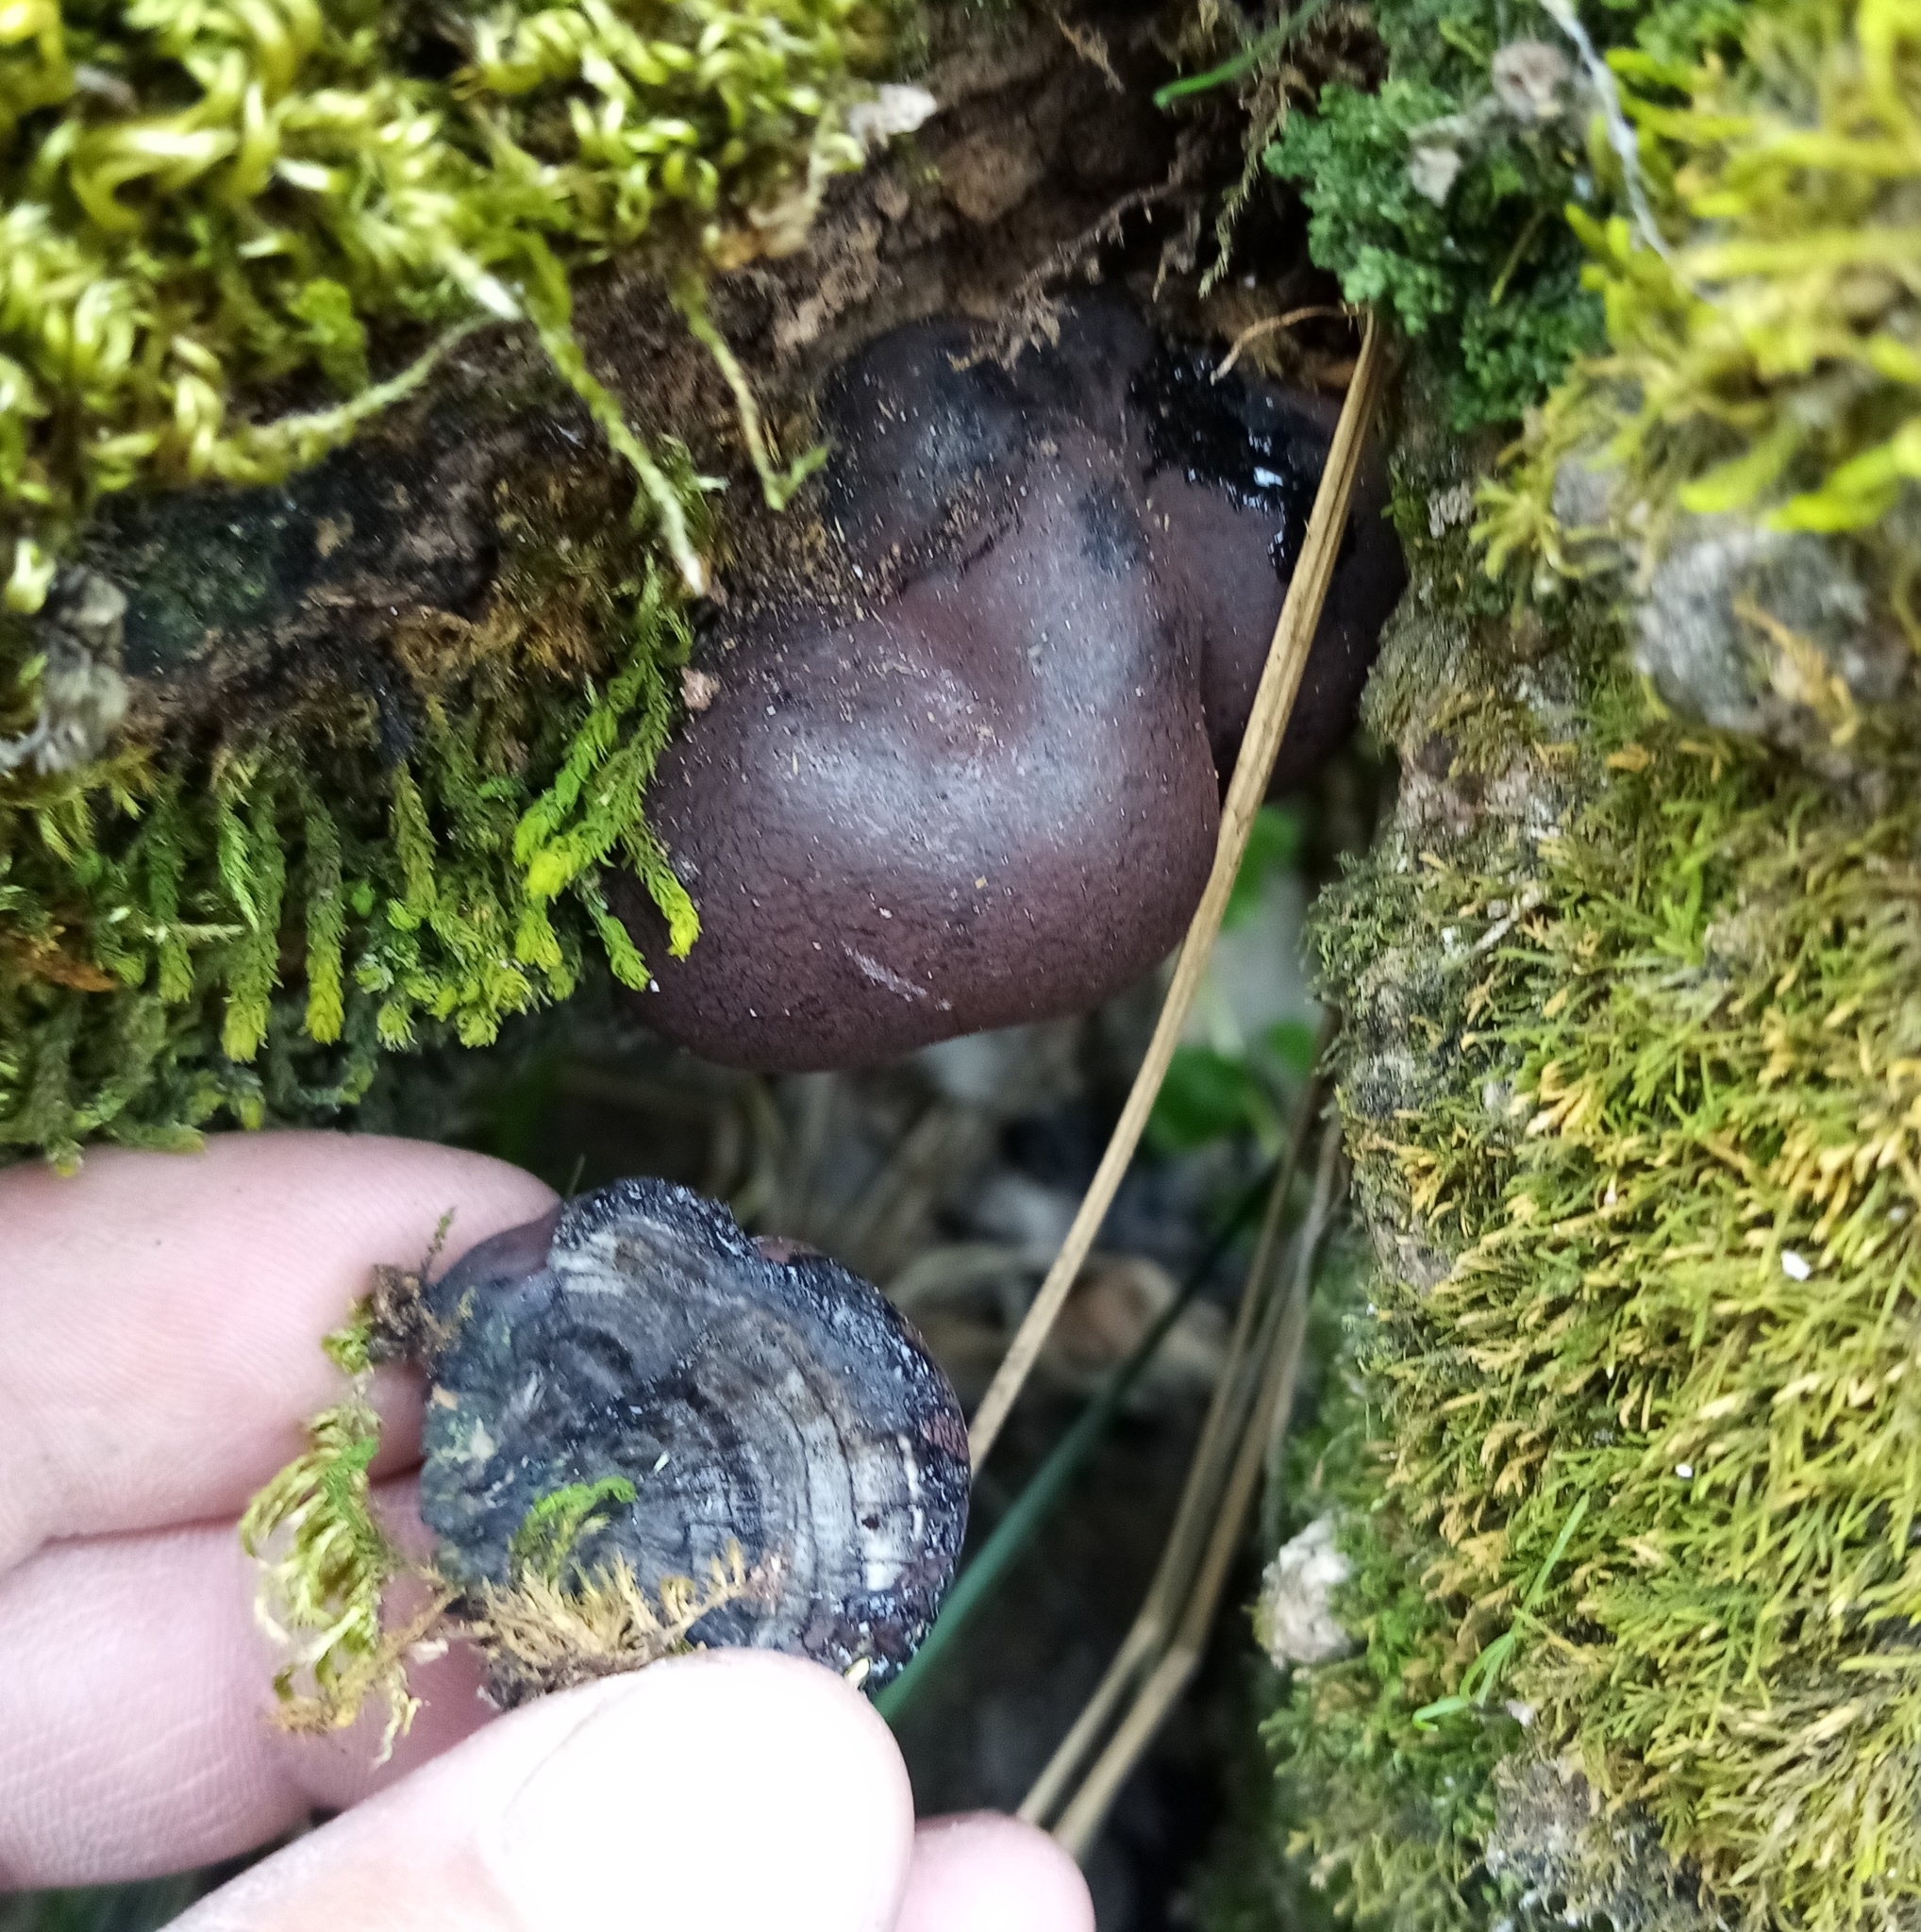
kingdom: Fungi
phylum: Ascomycota
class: Sordariomycetes
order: Xylariales
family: Hypoxylaceae
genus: Daldinia
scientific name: Daldinia concentrica
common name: Cramp balls
